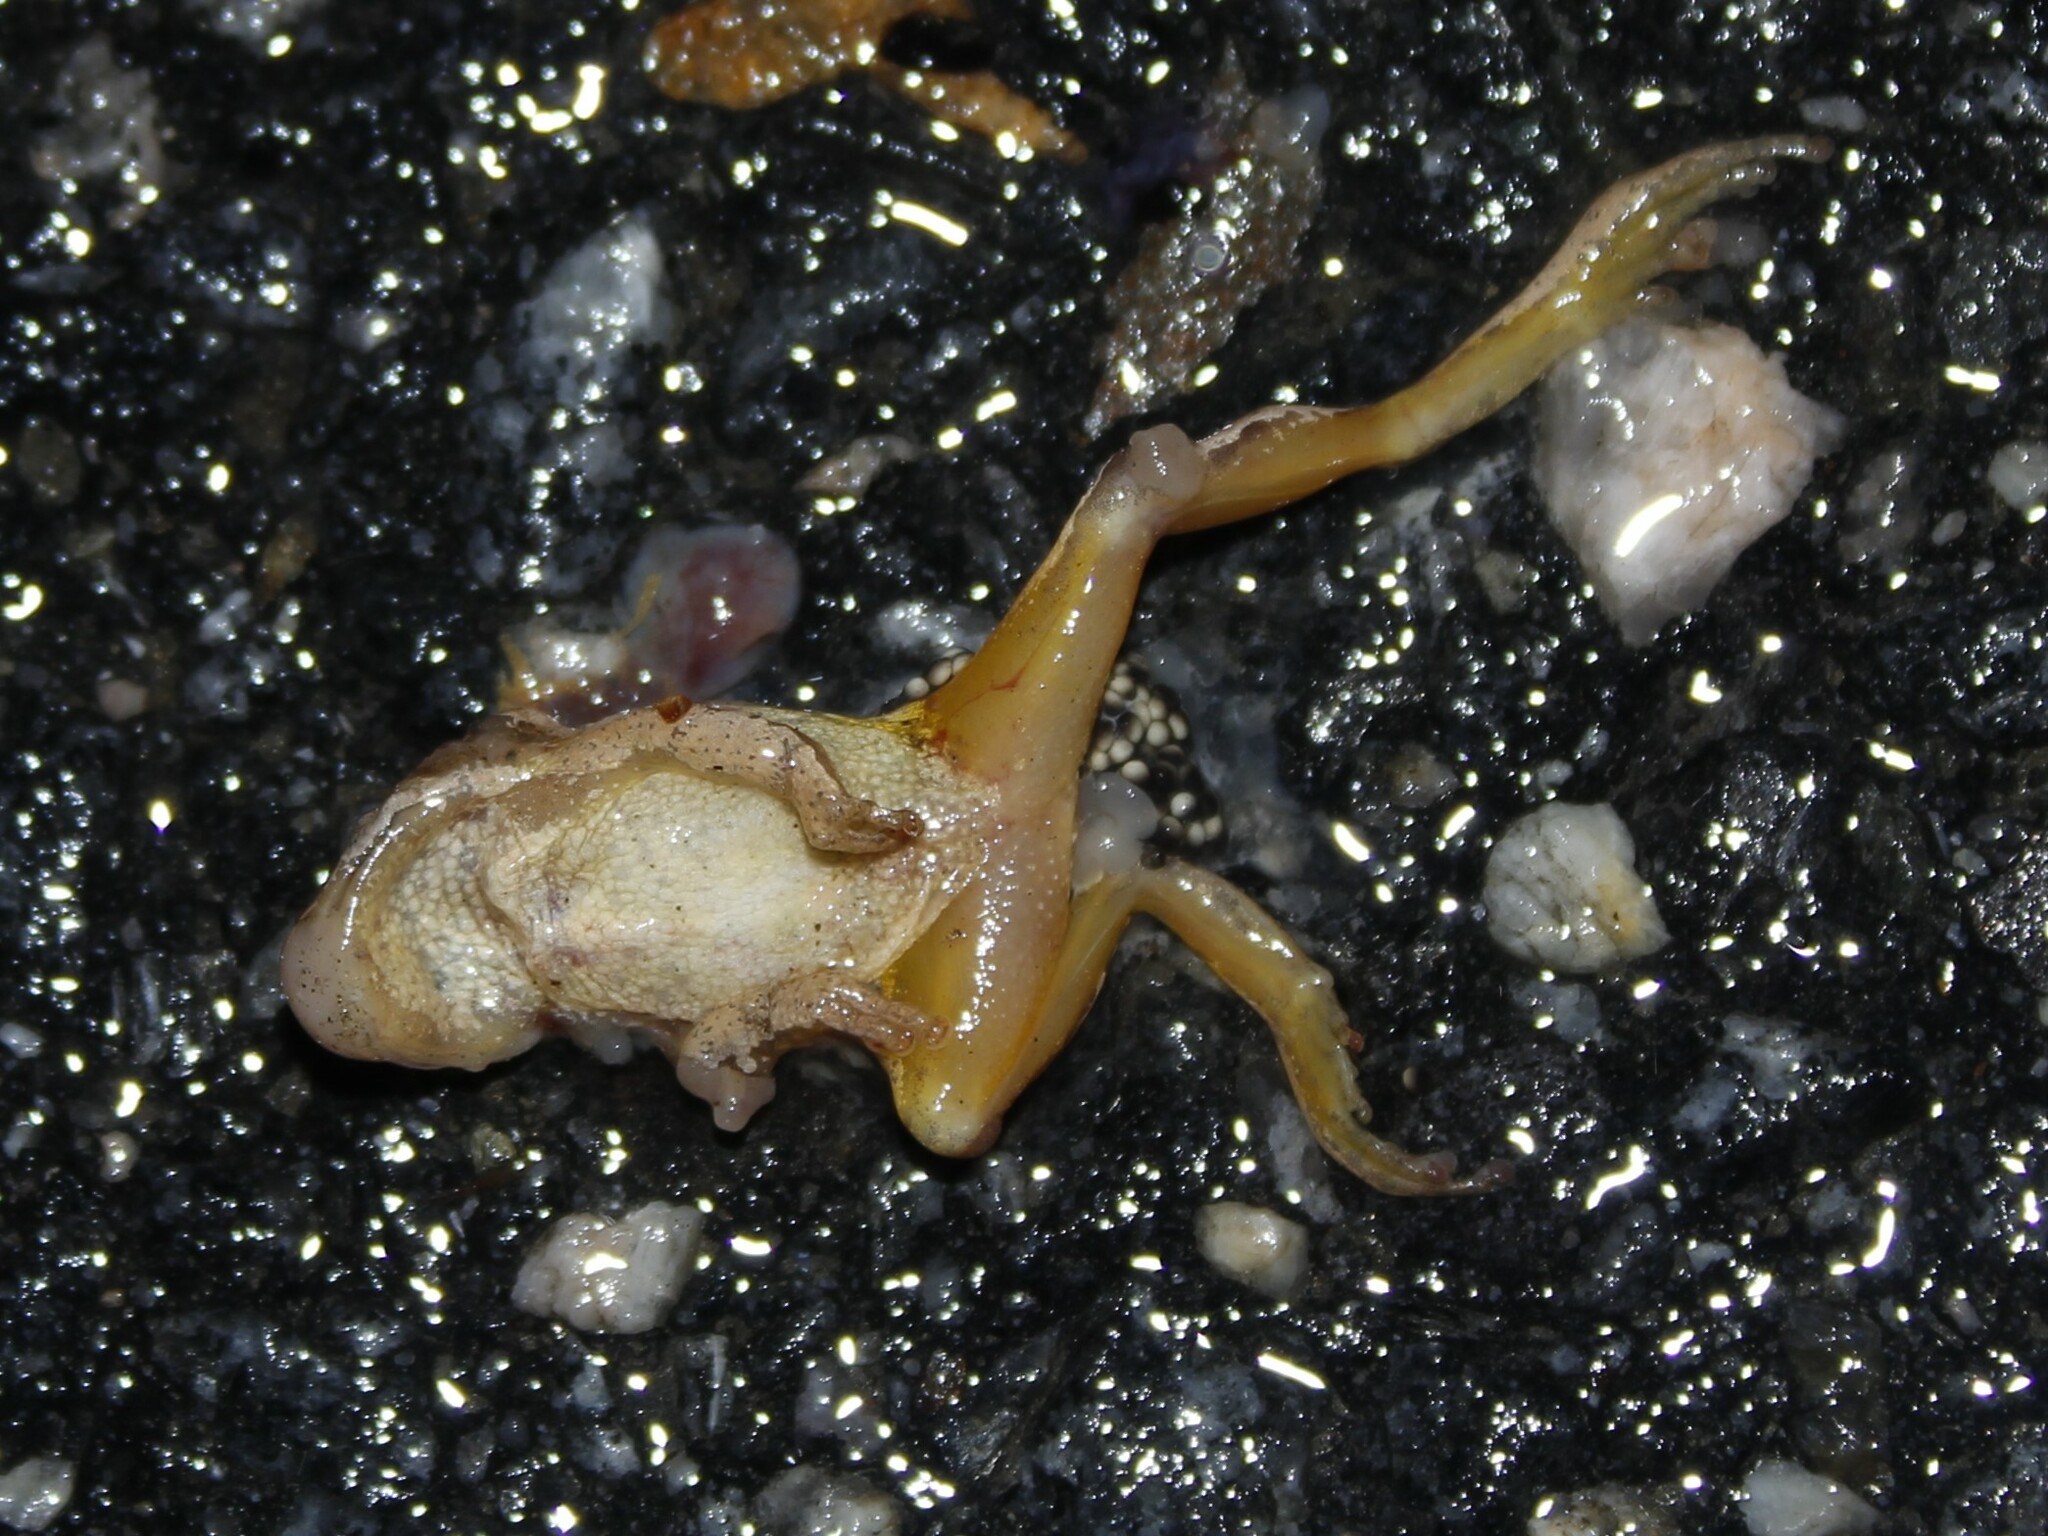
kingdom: Animalia
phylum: Chordata
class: Amphibia
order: Anura
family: Hylidae
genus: Pseudacris
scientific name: Pseudacris crucifer
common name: Spring peeper
